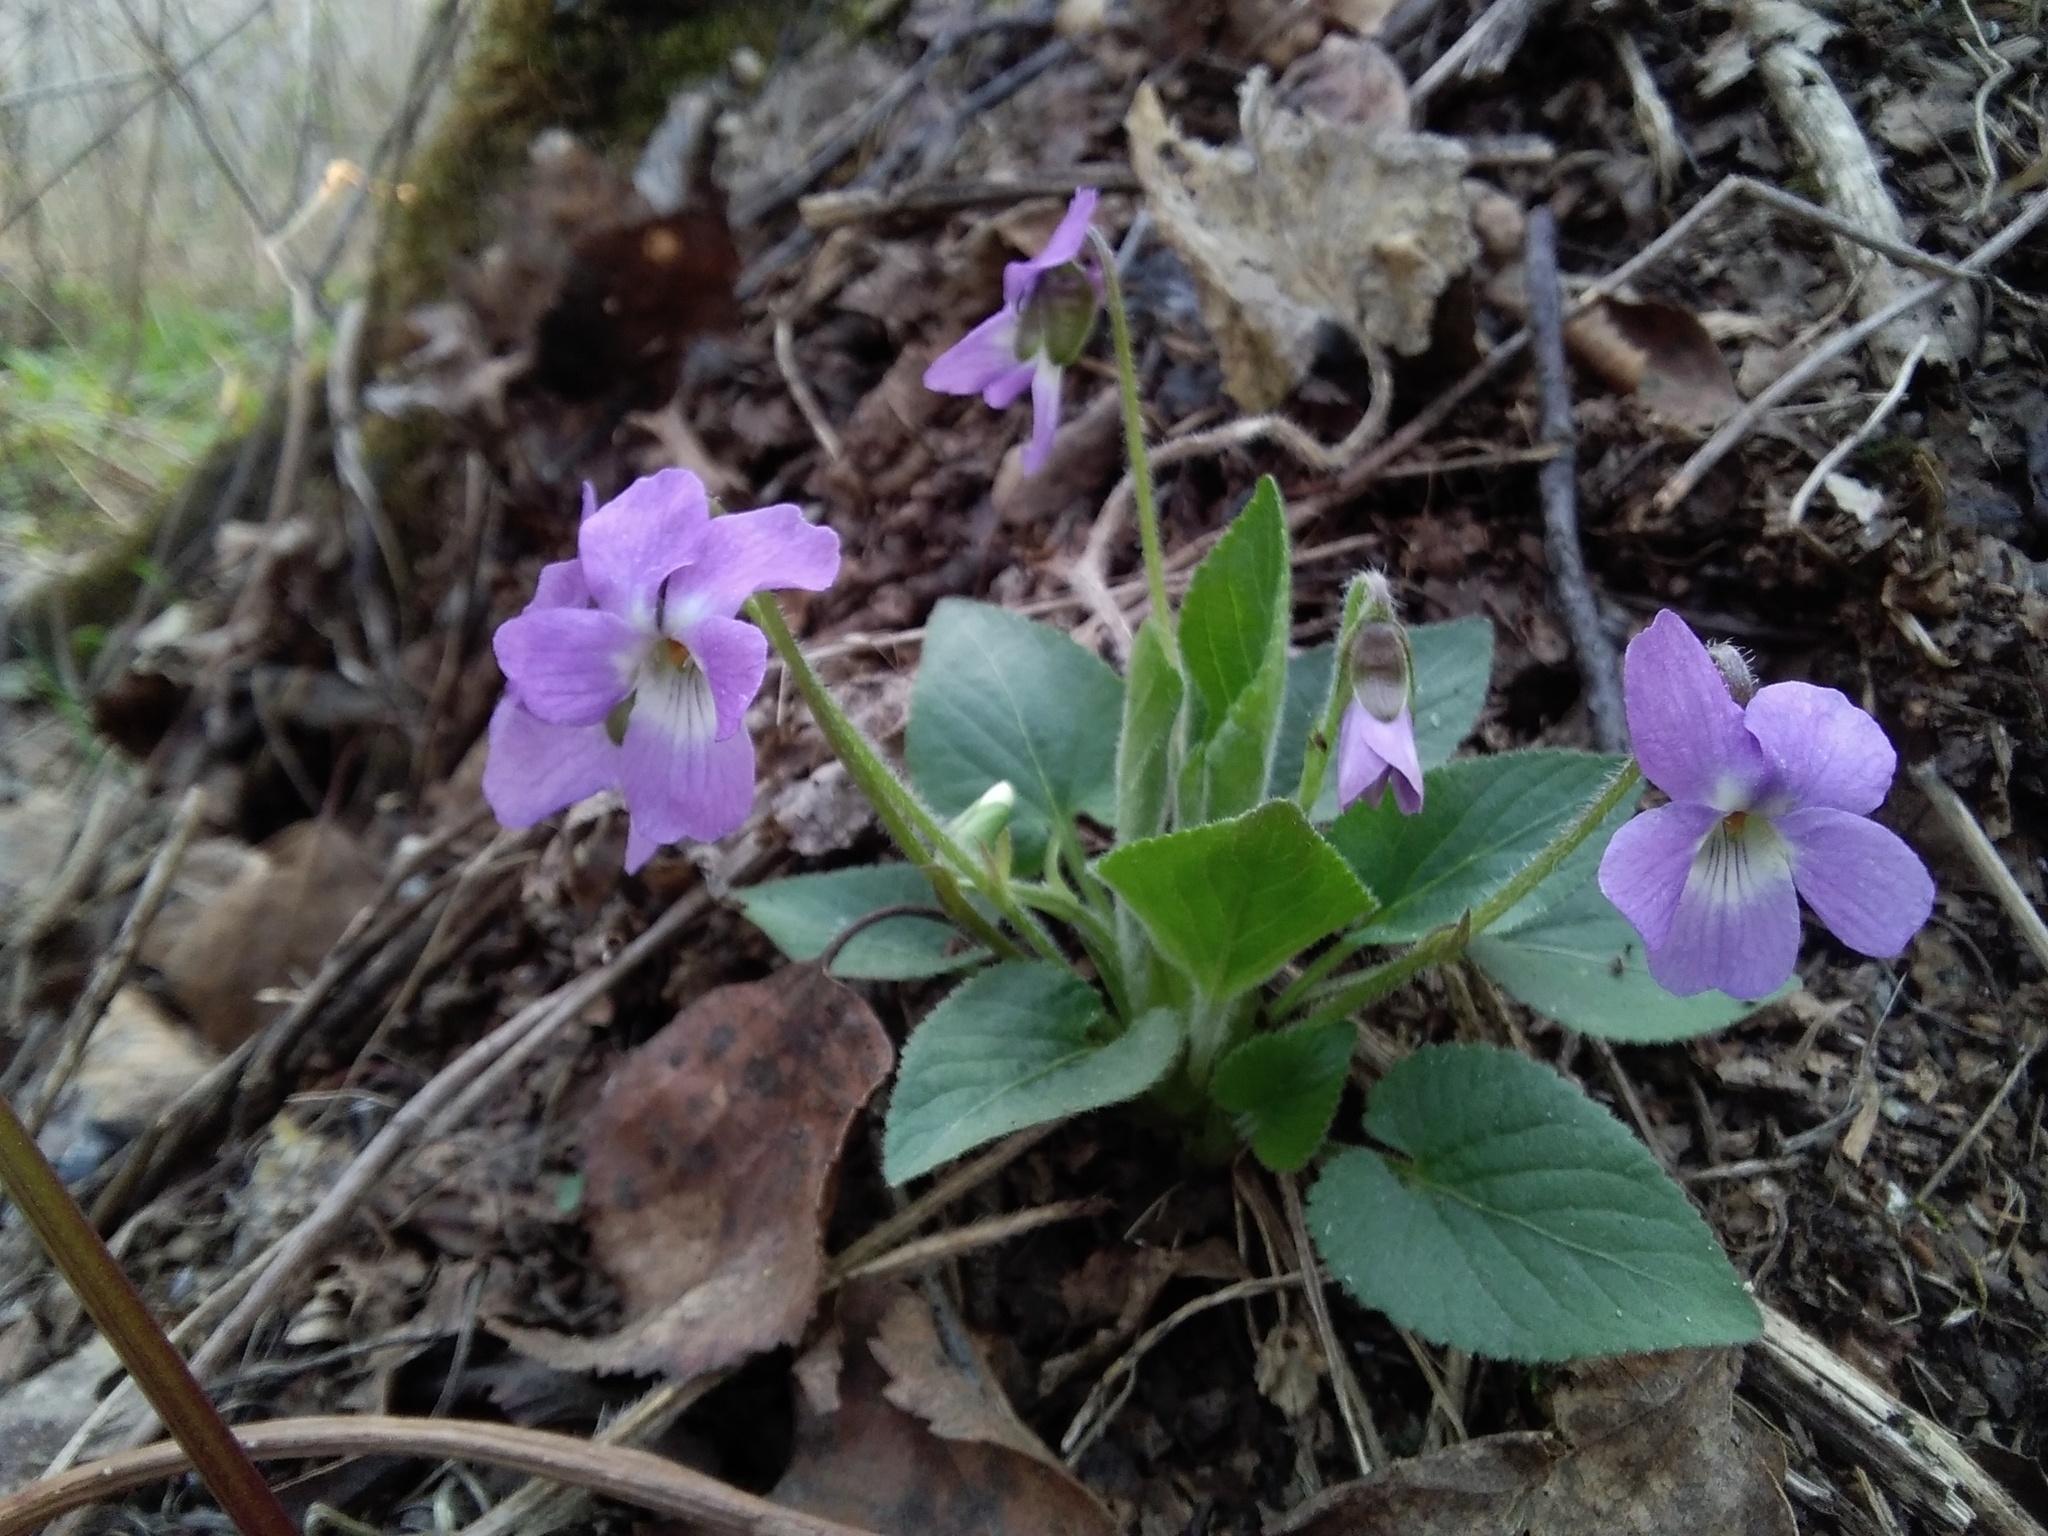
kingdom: Plantae
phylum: Tracheophyta
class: Magnoliopsida
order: Malpighiales
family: Violaceae
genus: Viola
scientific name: Viola hirta
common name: Hairy violet
